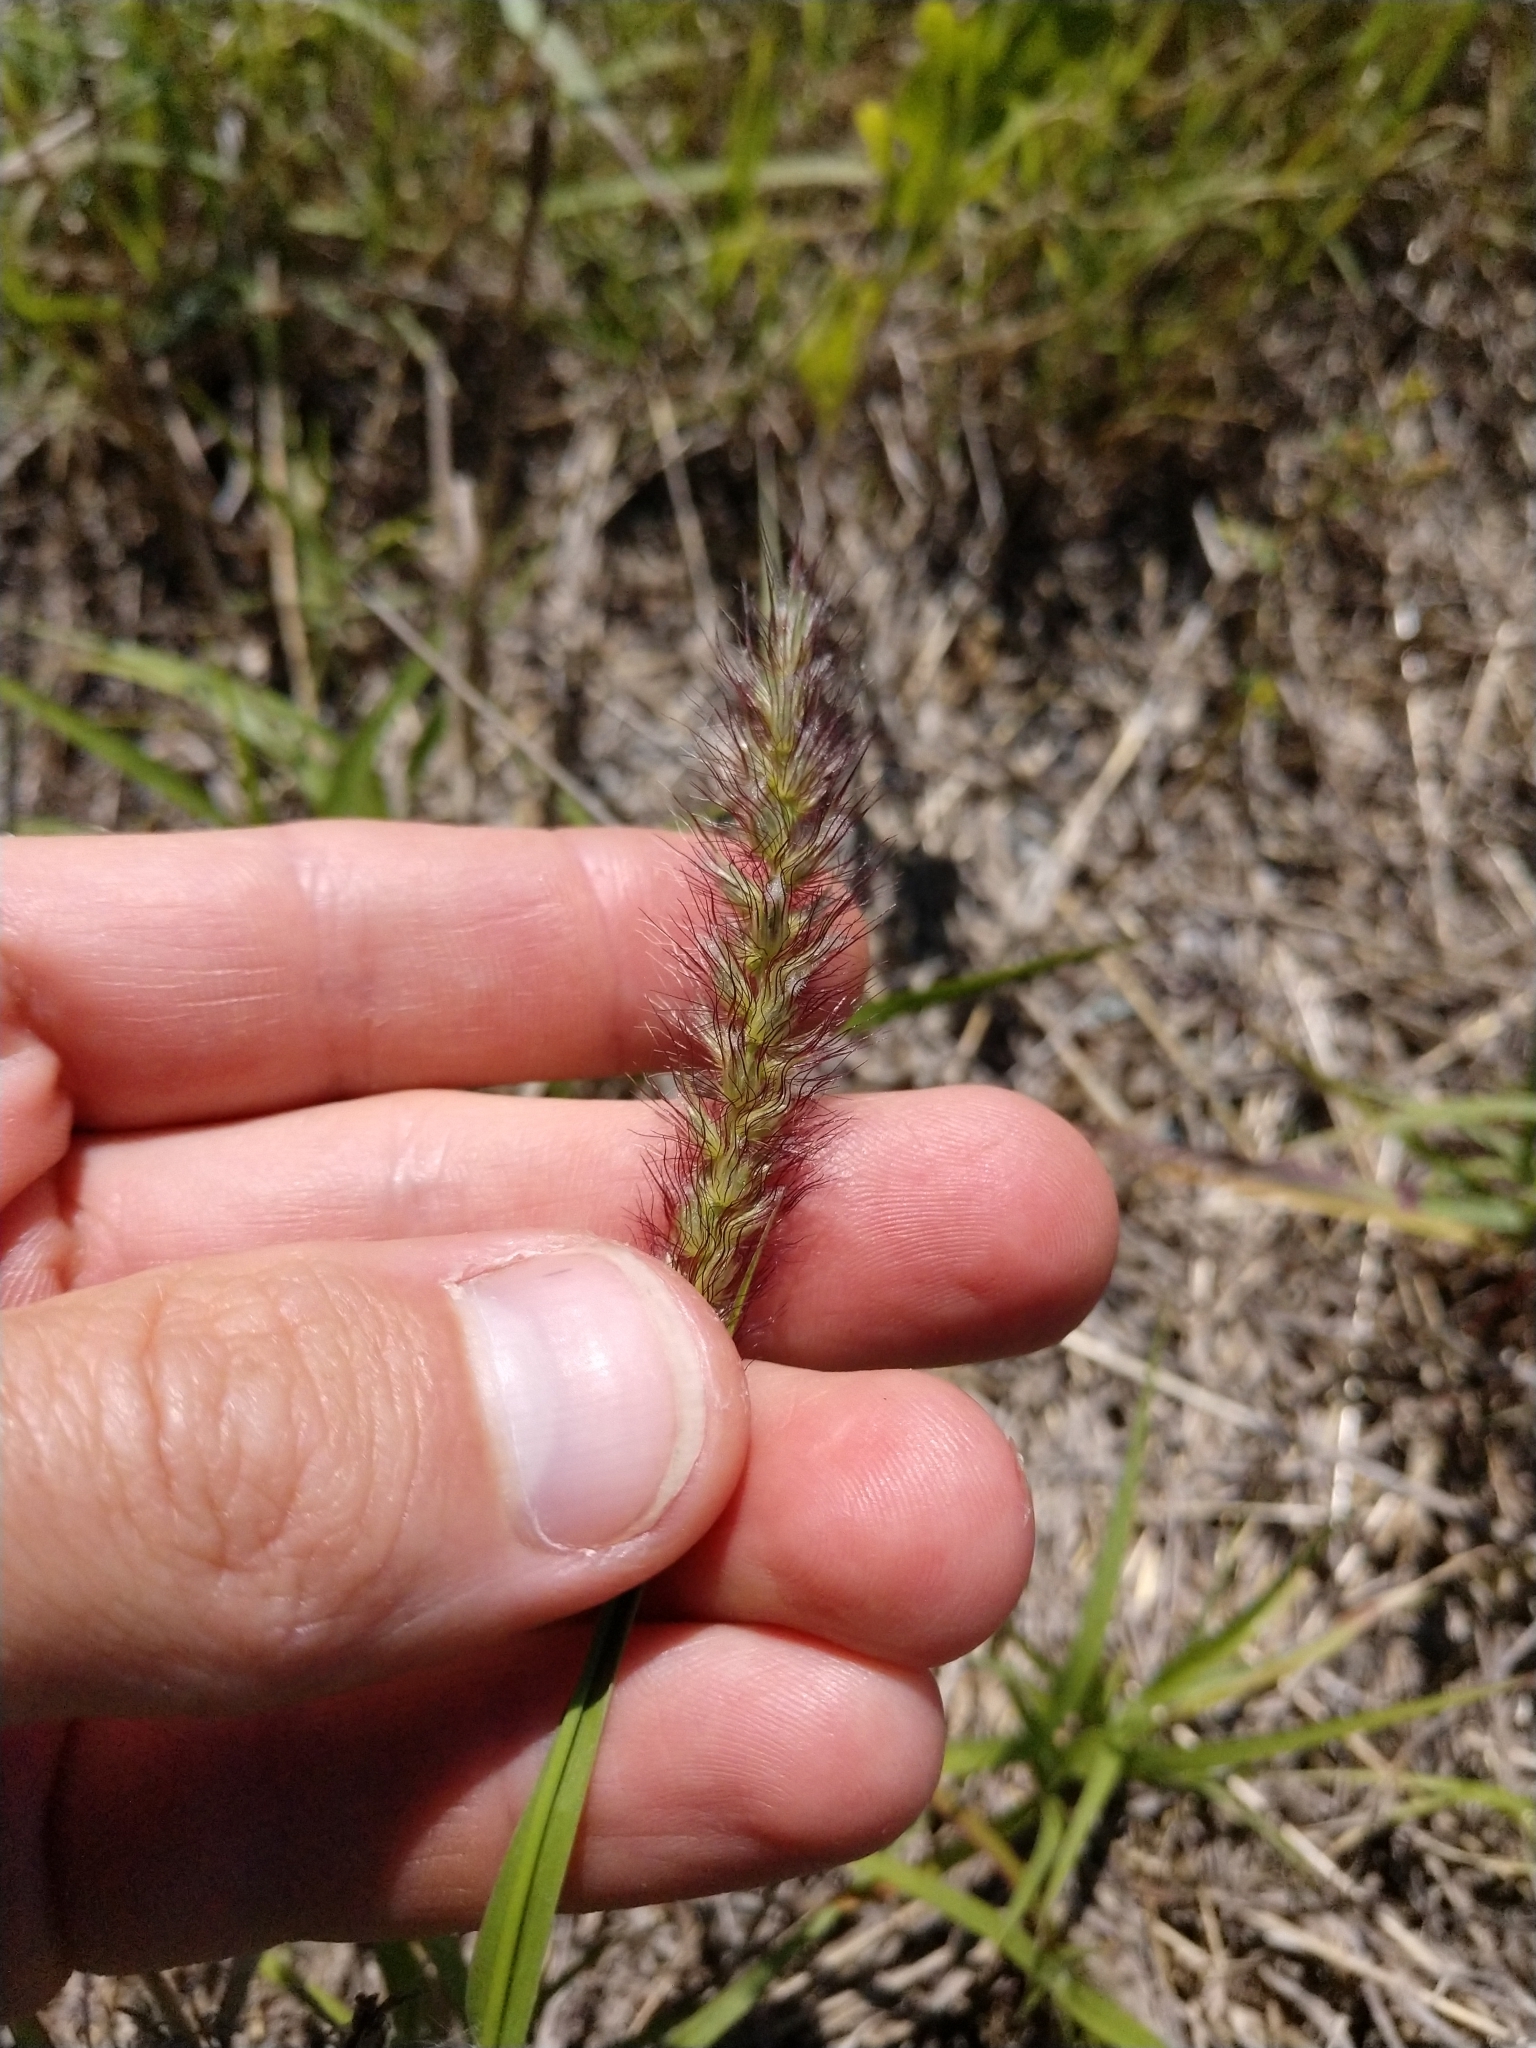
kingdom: Plantae
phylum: Tracheophyta
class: Liliopsida
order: Poales
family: Poaceae
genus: Cenchrus
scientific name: Cenchrus ciliaris
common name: Buffelgrass
